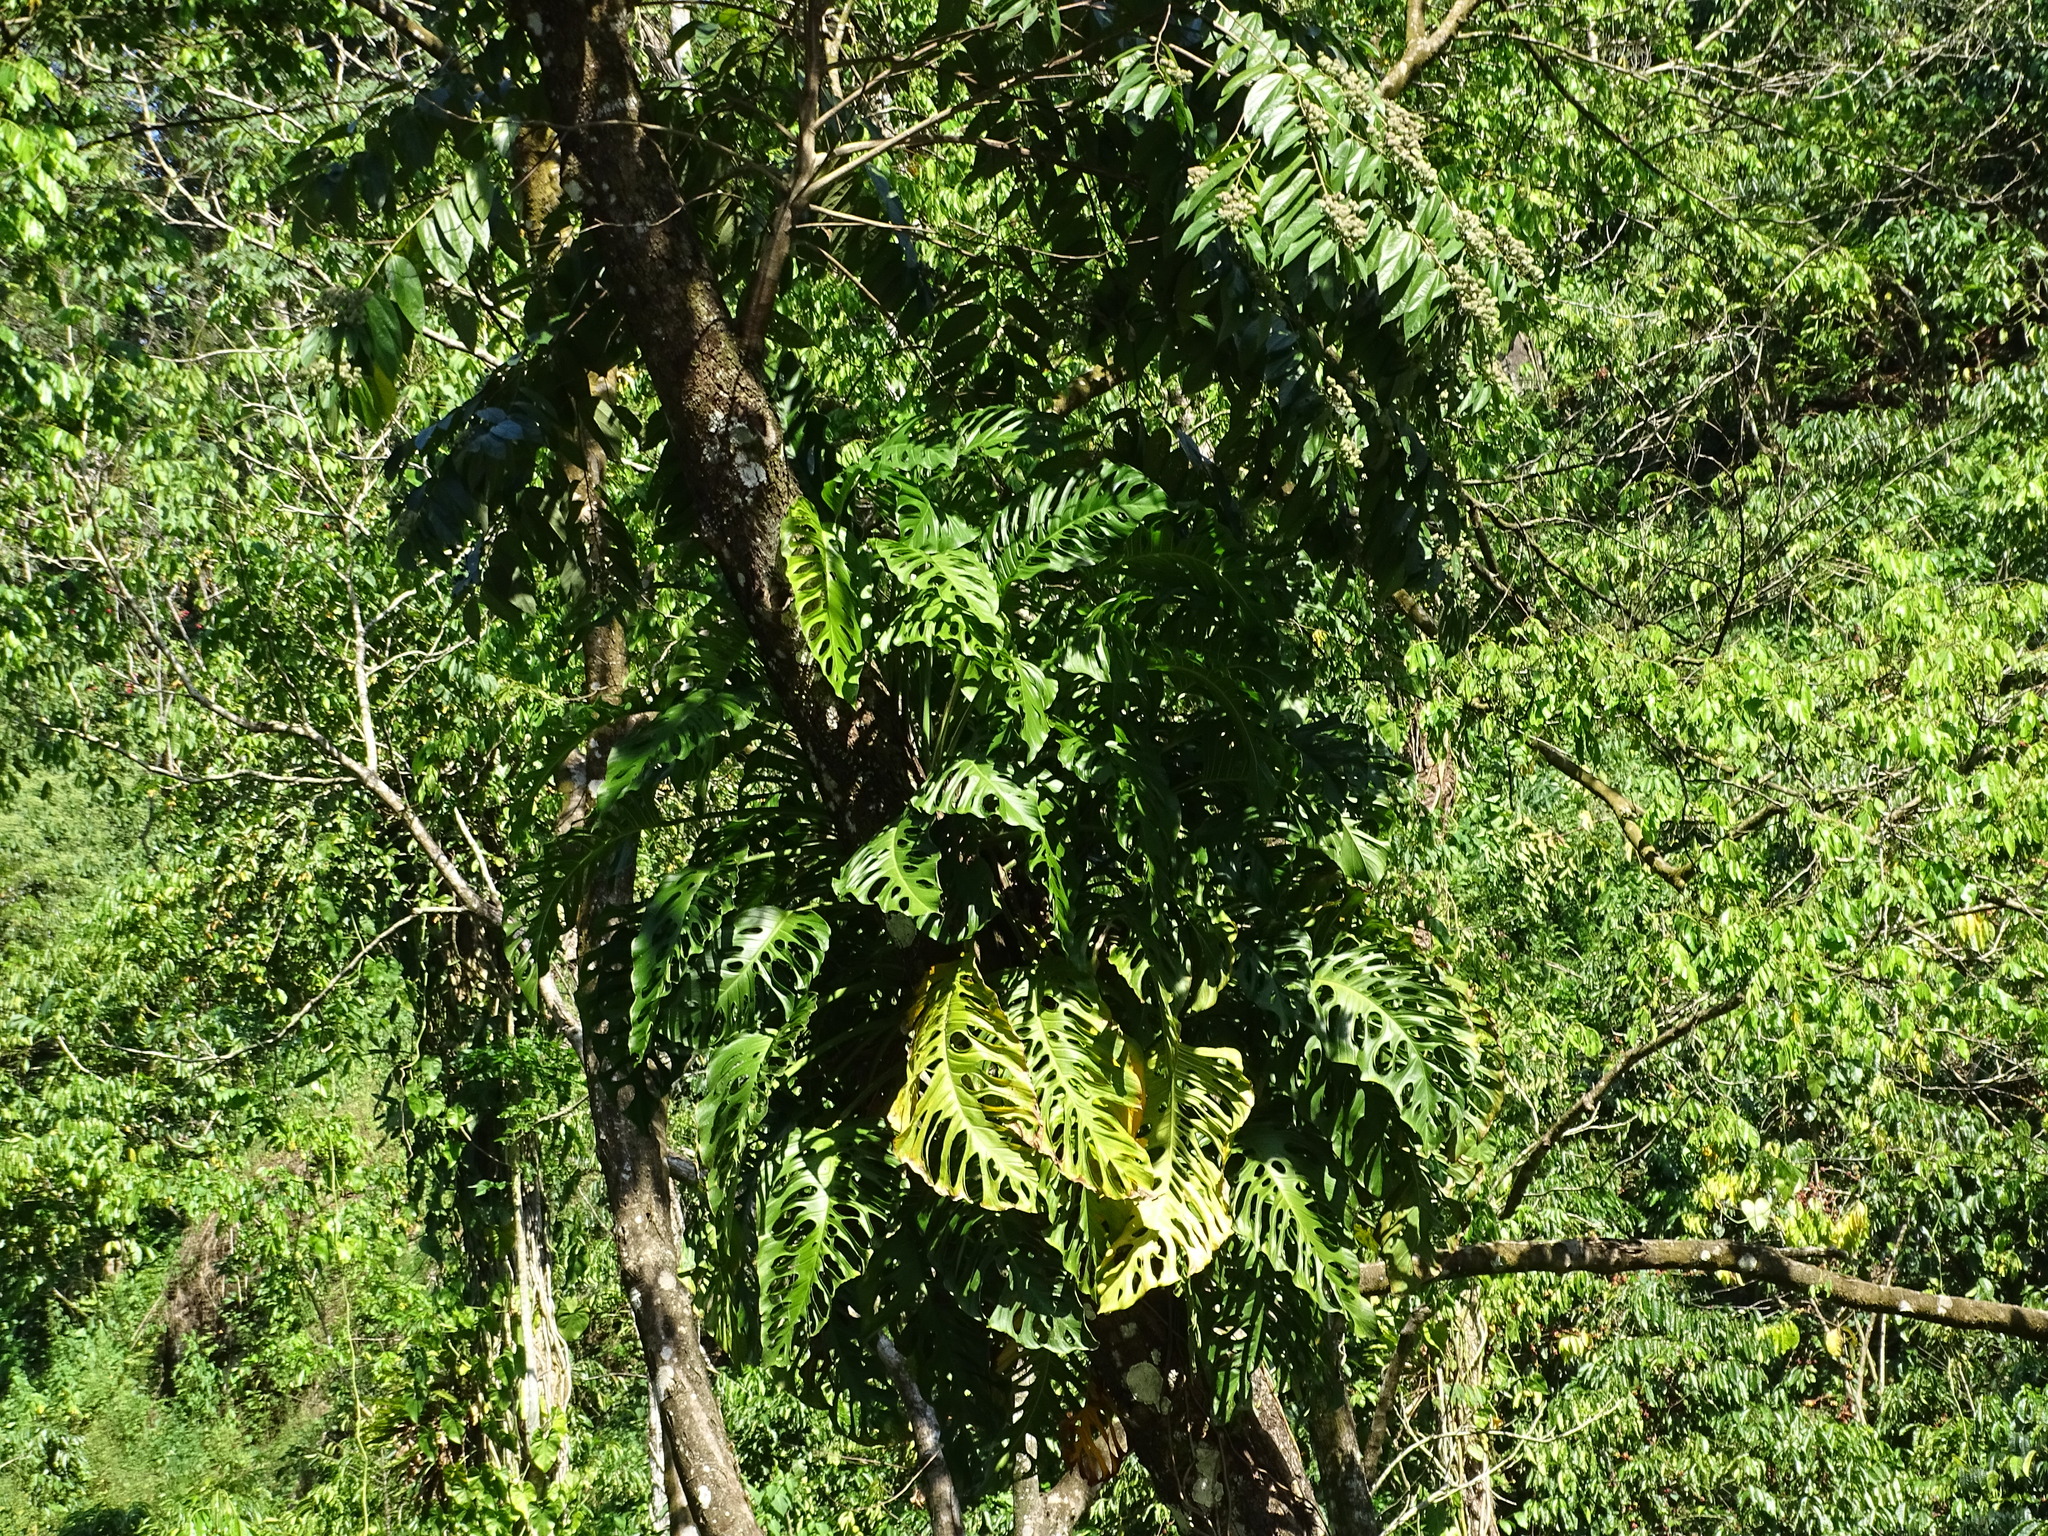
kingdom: Plantae
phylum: Tracheophyta
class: Liliopsida
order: Alismatales
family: Araceae
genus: Monstera
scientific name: Monstera acuminata
